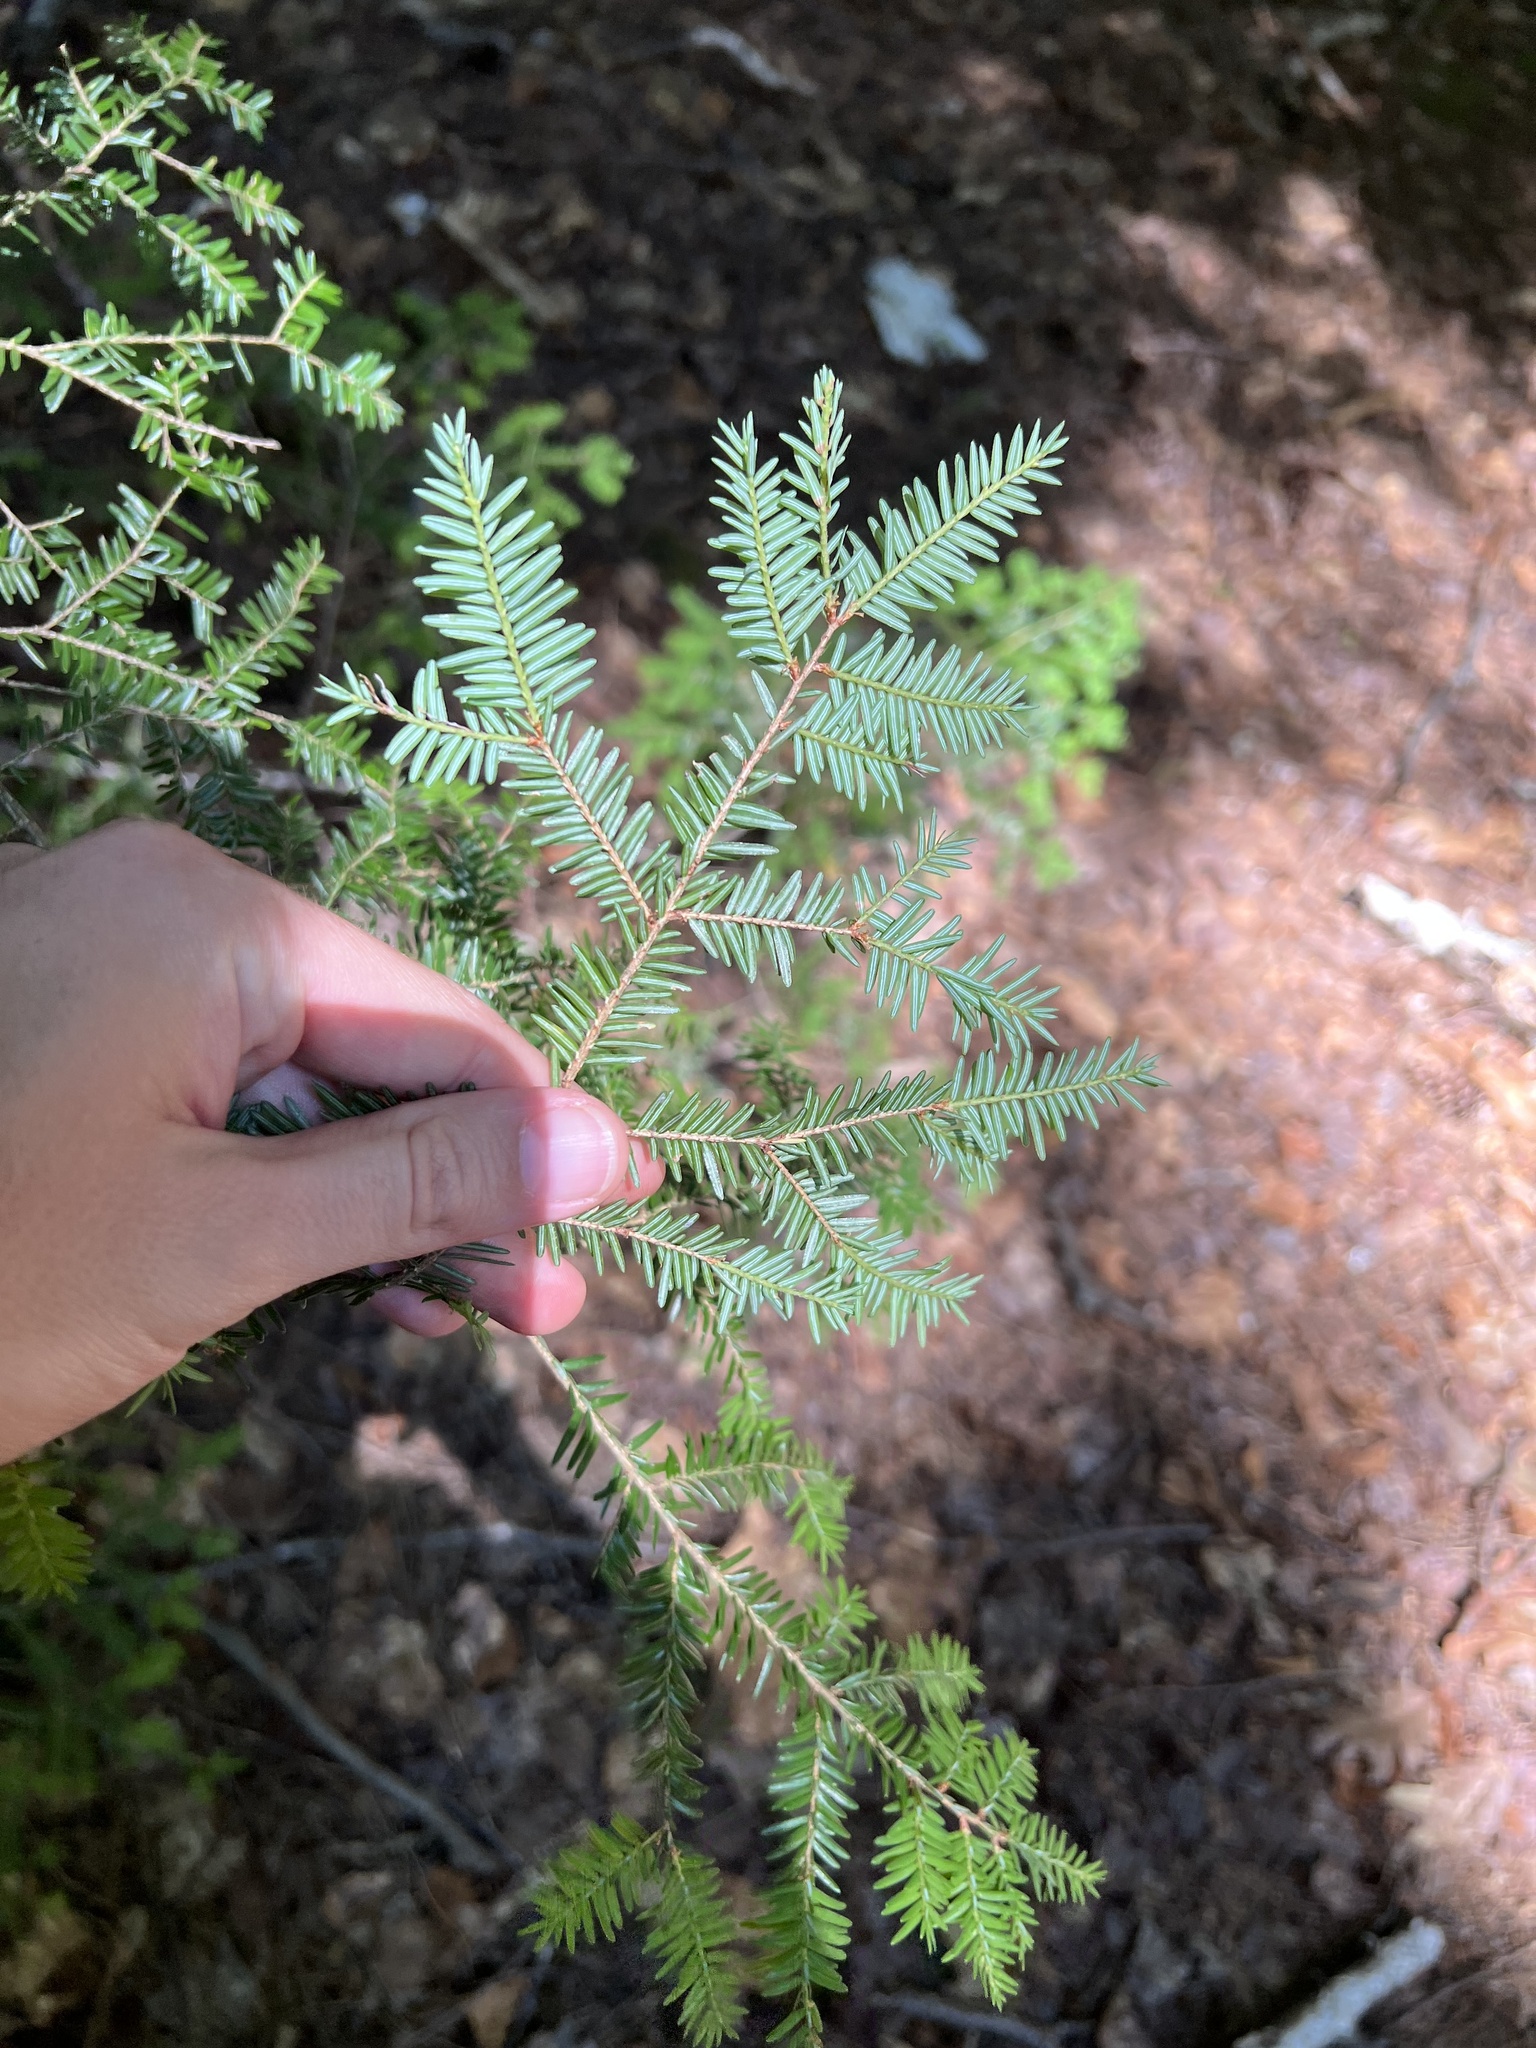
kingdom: Plantae
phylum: Tracheophyta
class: Pinopsida
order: Pinales
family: Pinaceae
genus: Tsuga
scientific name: Tsuga canadensis
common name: Eastern hemlock
